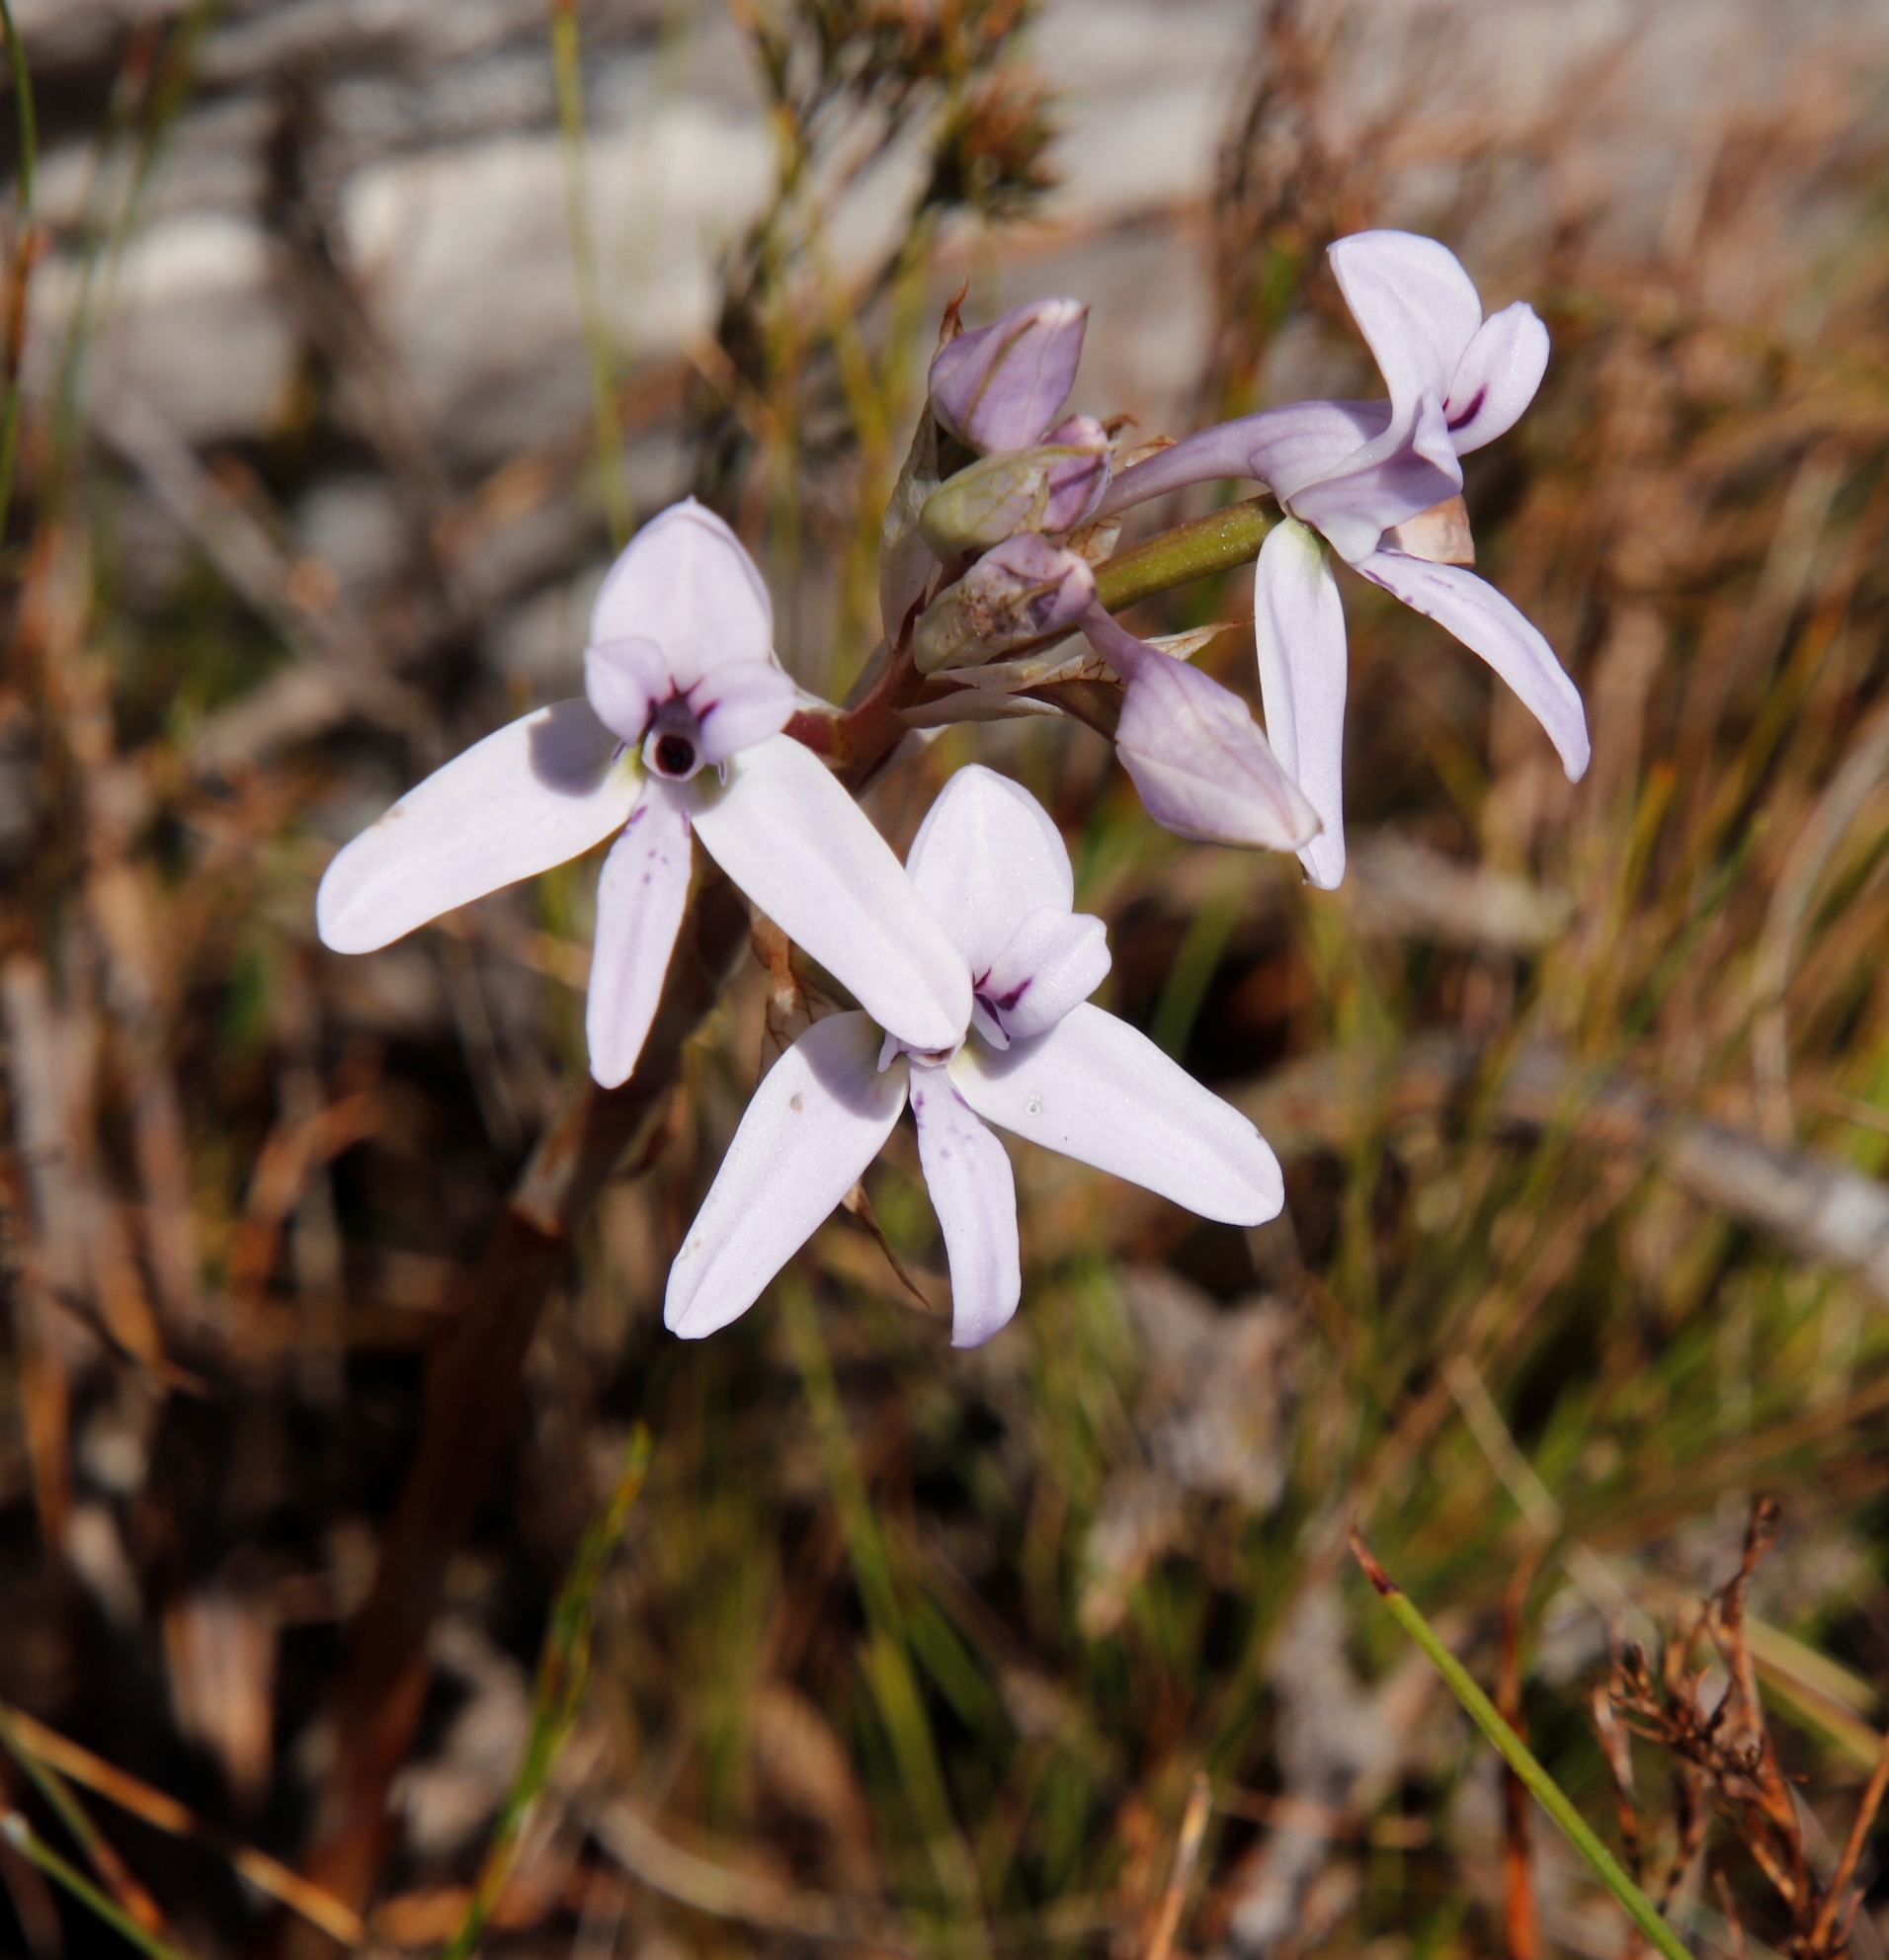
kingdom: Plantae
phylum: Tracheophyta
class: Liliopsida
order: Asparagales
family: Orchidaceae
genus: Disa
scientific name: Disa harveyana
